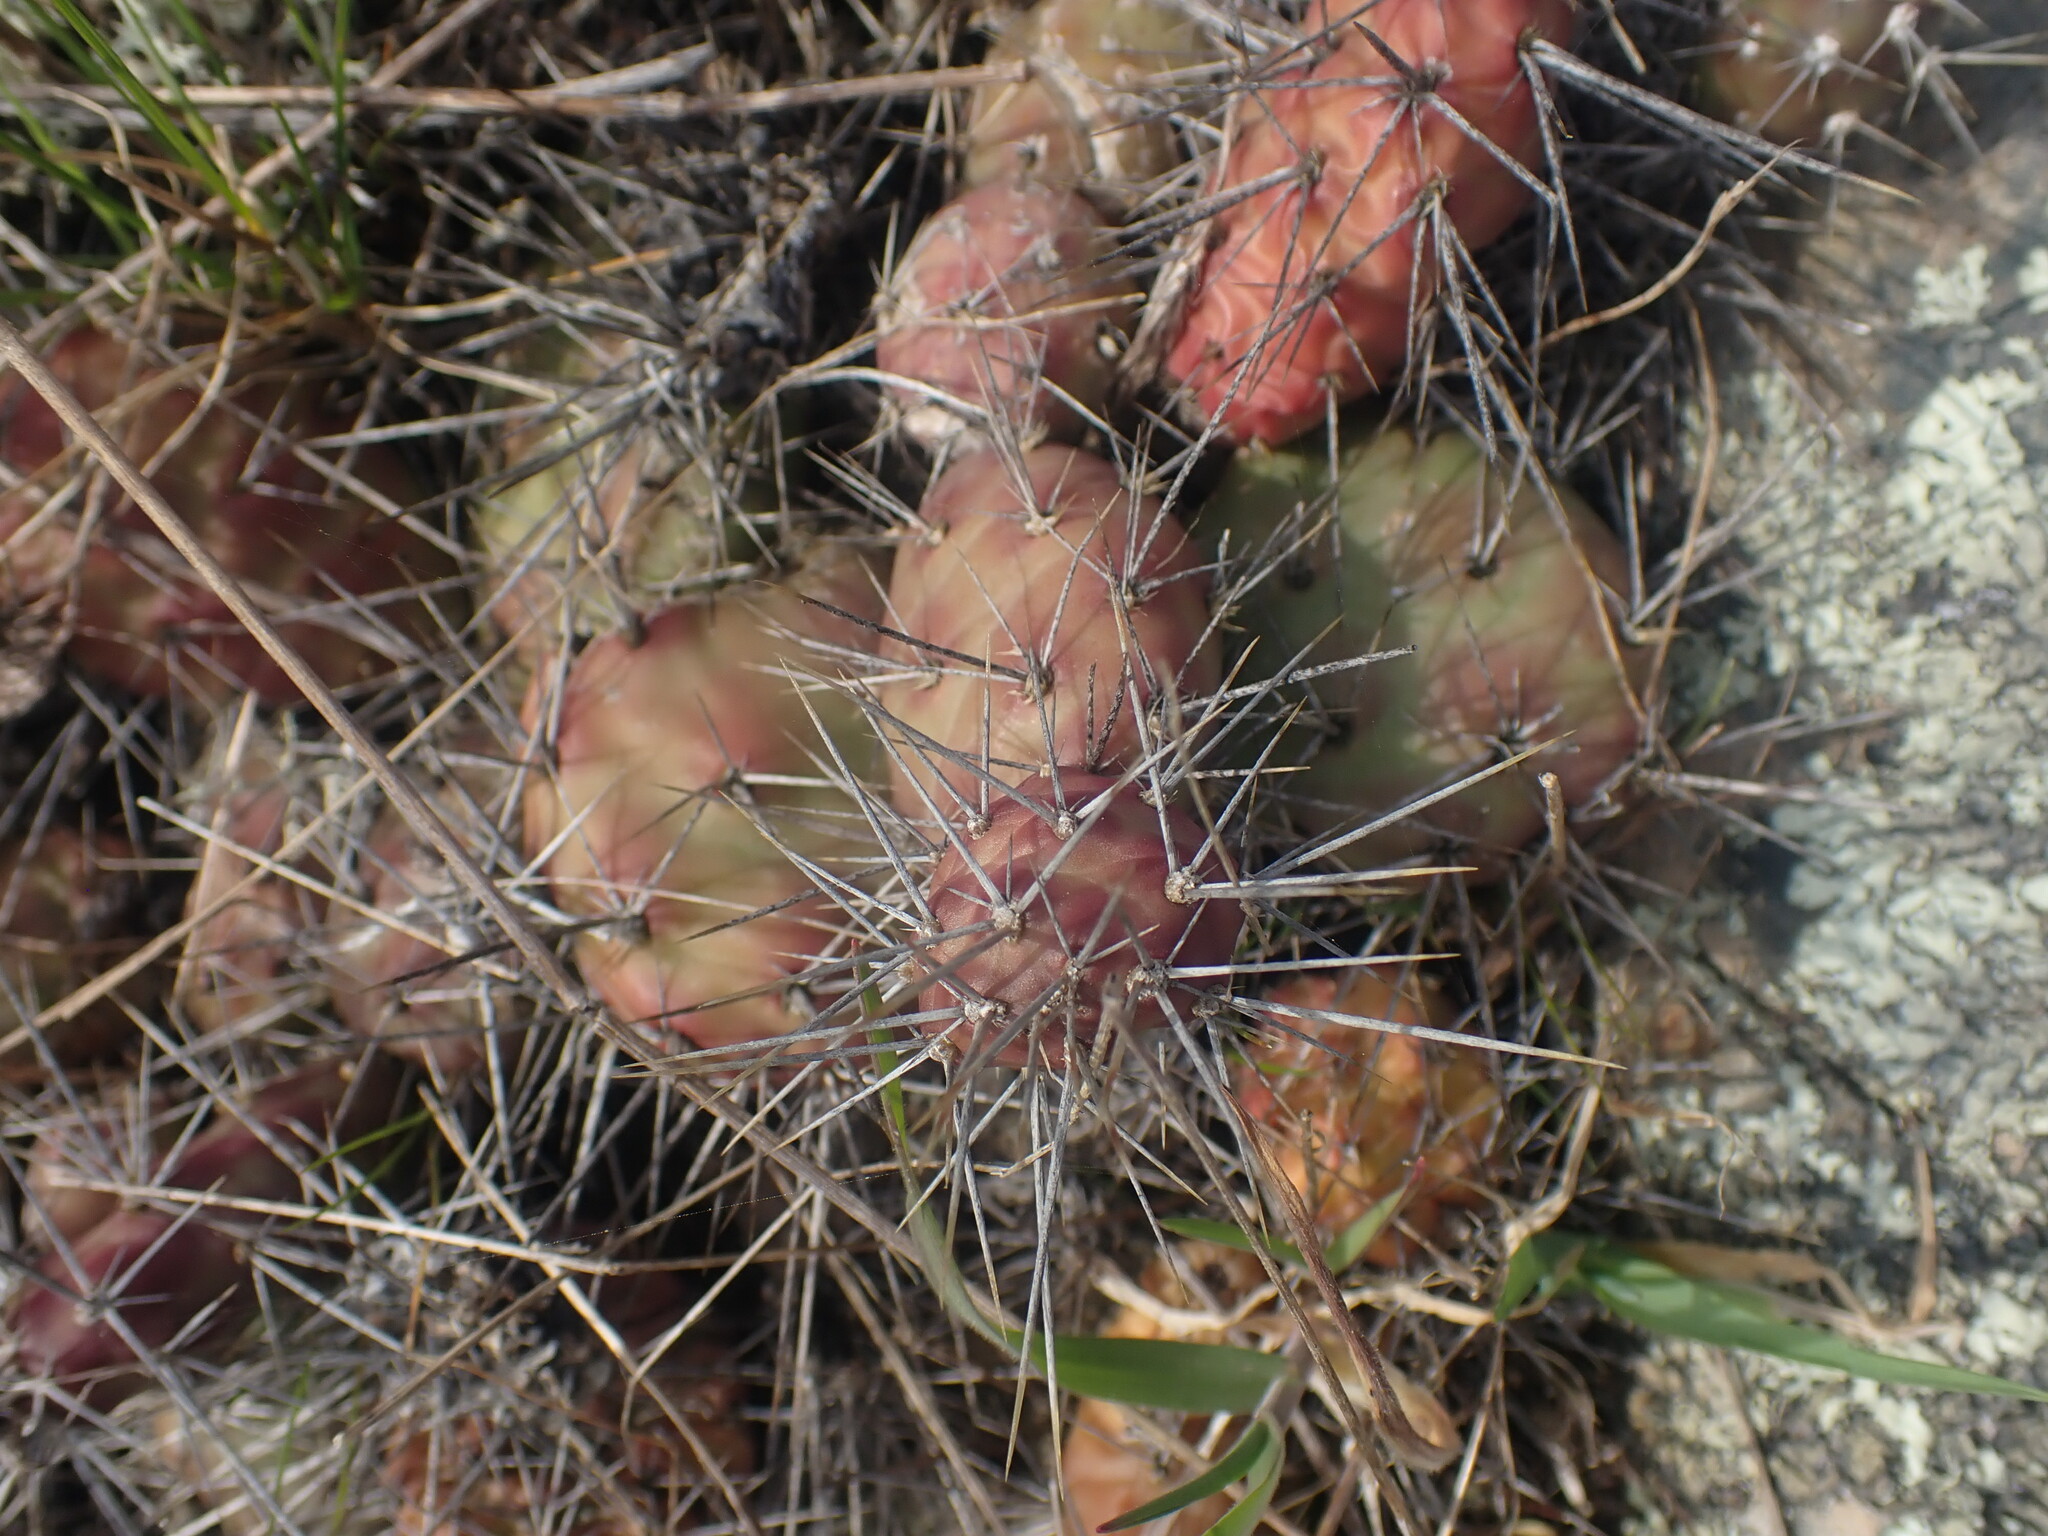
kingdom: Plantae
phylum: Tracheophyta
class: Magnoliopsida
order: Caryophyllales
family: Cactaceae
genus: Opuntia
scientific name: Opuntia fragilis
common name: Brittle cactus
